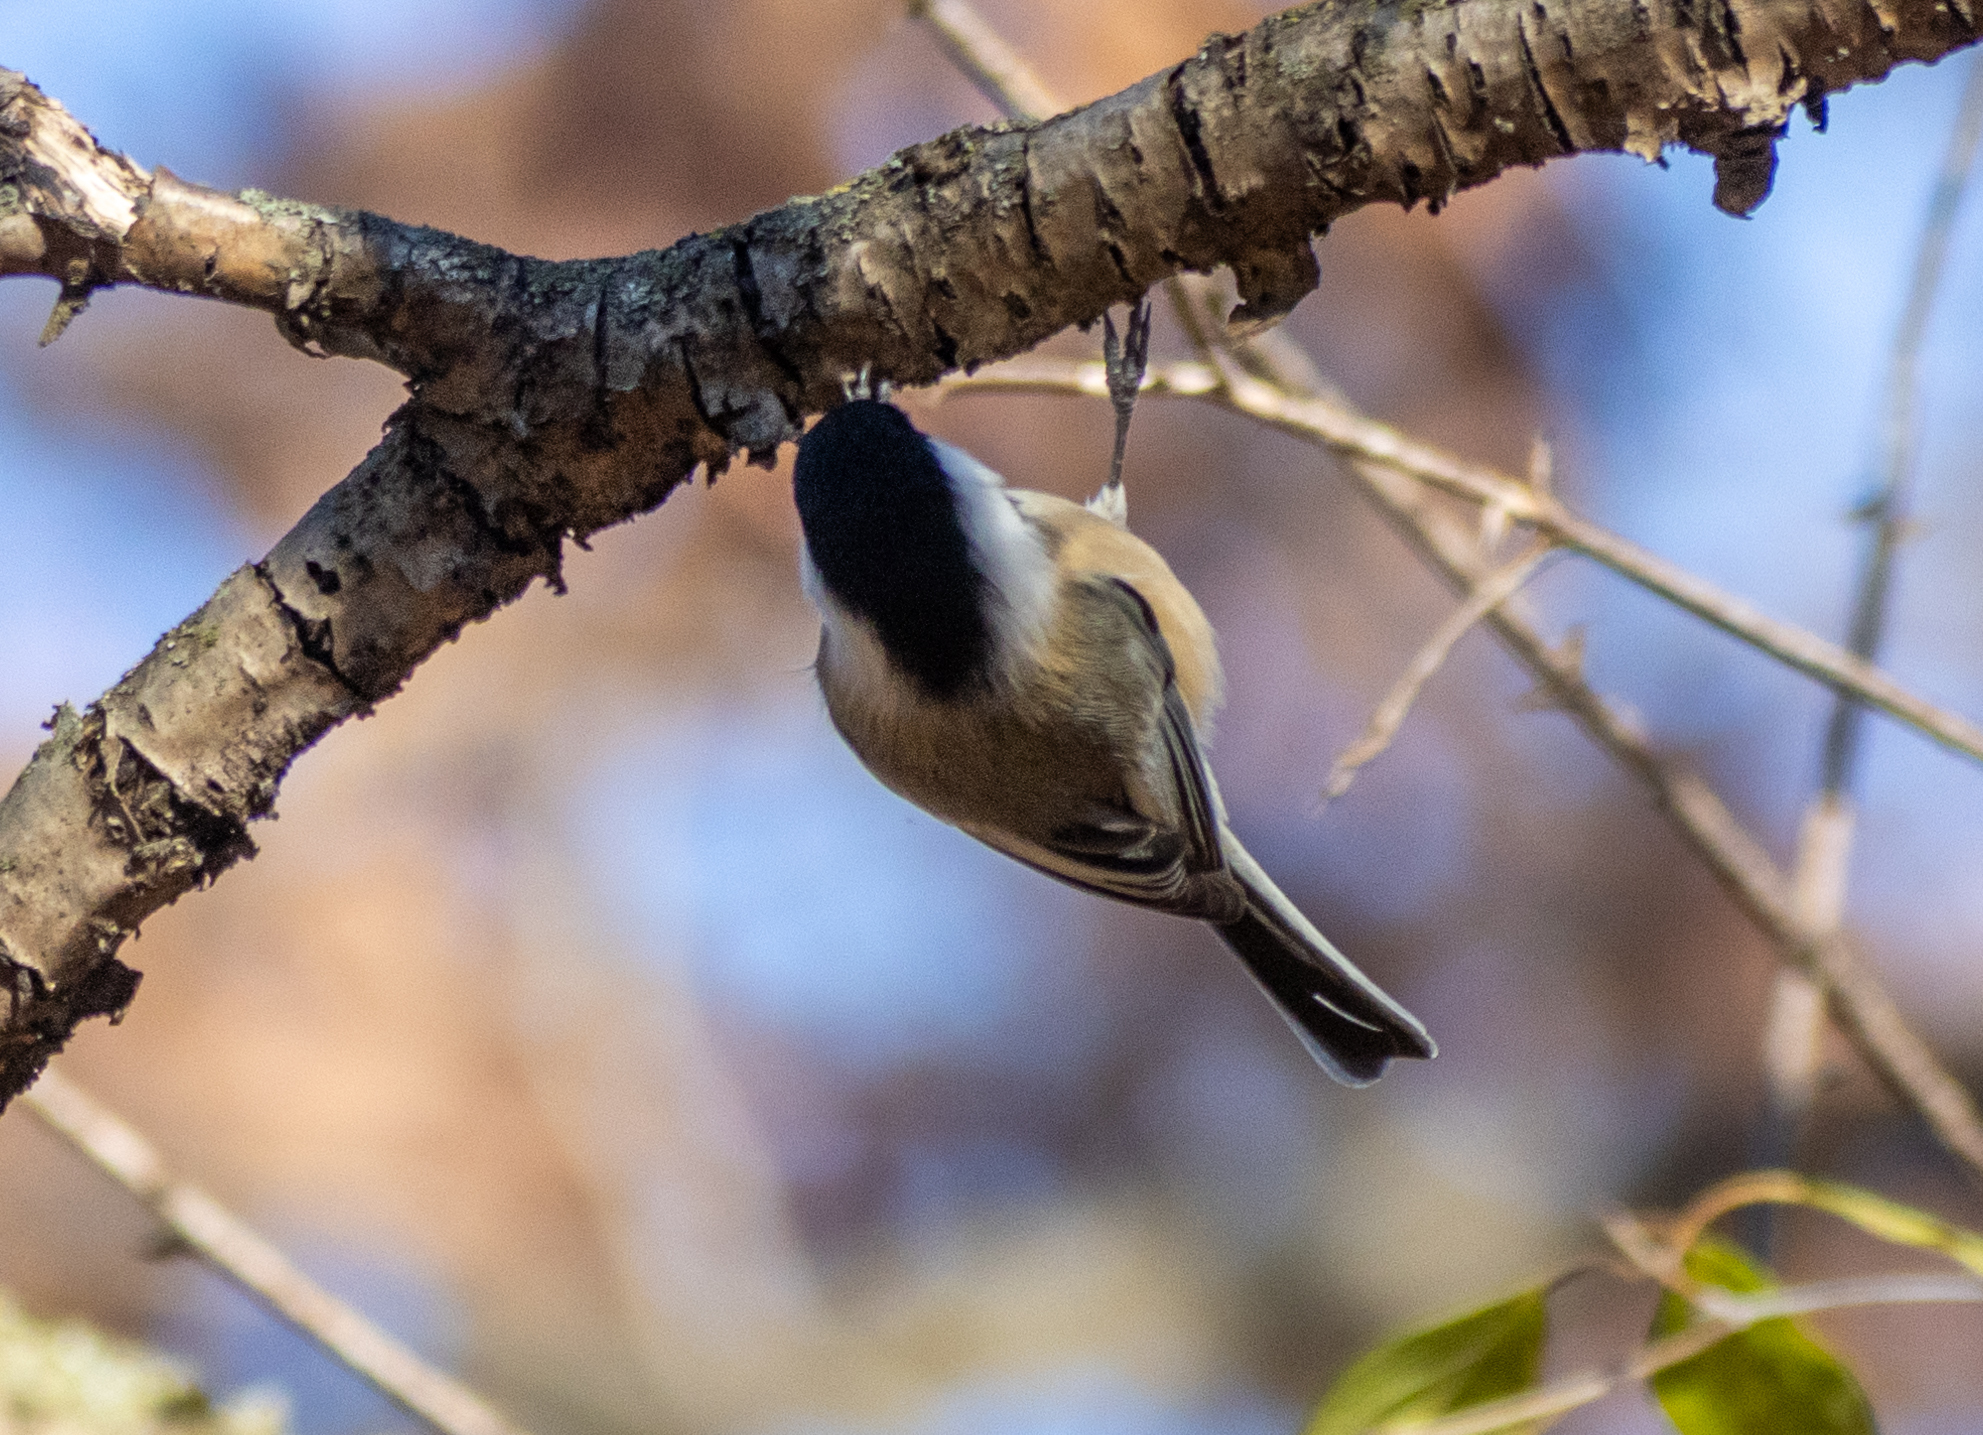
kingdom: Animalia
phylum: Chordata
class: Aves
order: Passeriformes
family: Paridae
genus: Poecile
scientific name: Poecile atricapillus
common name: Black-capped chickadee
